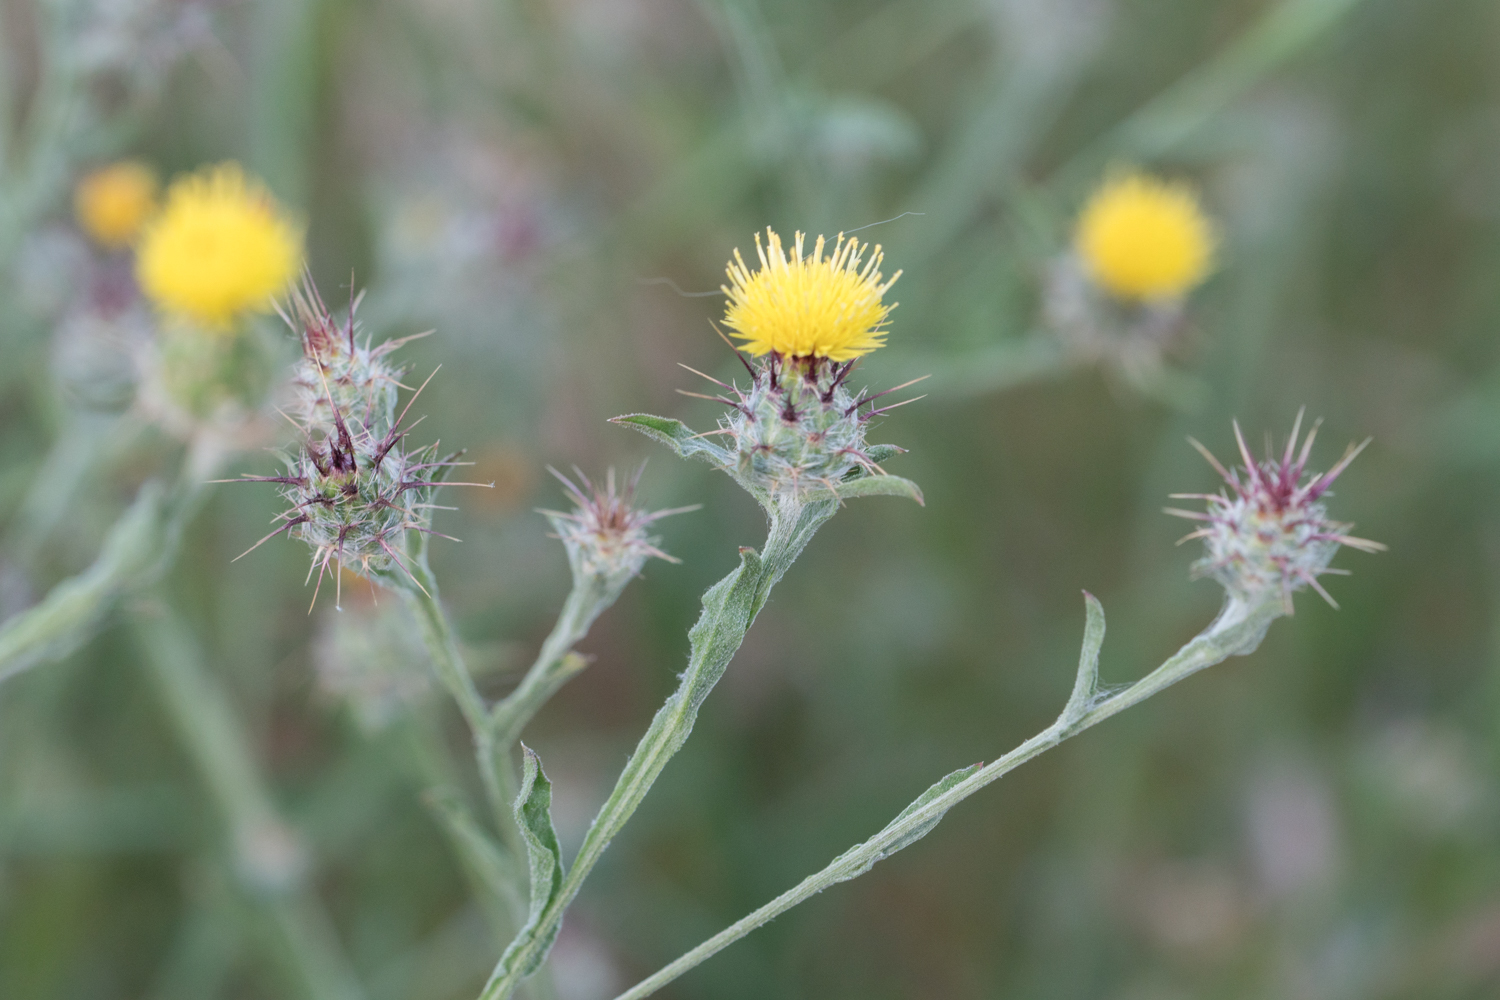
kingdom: Plantae
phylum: Tracheophyta
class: Magnoliopsida
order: Asterales
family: Asteraceae
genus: Centaurea
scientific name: Centaurea melitensis
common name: Maltese star-thistle
